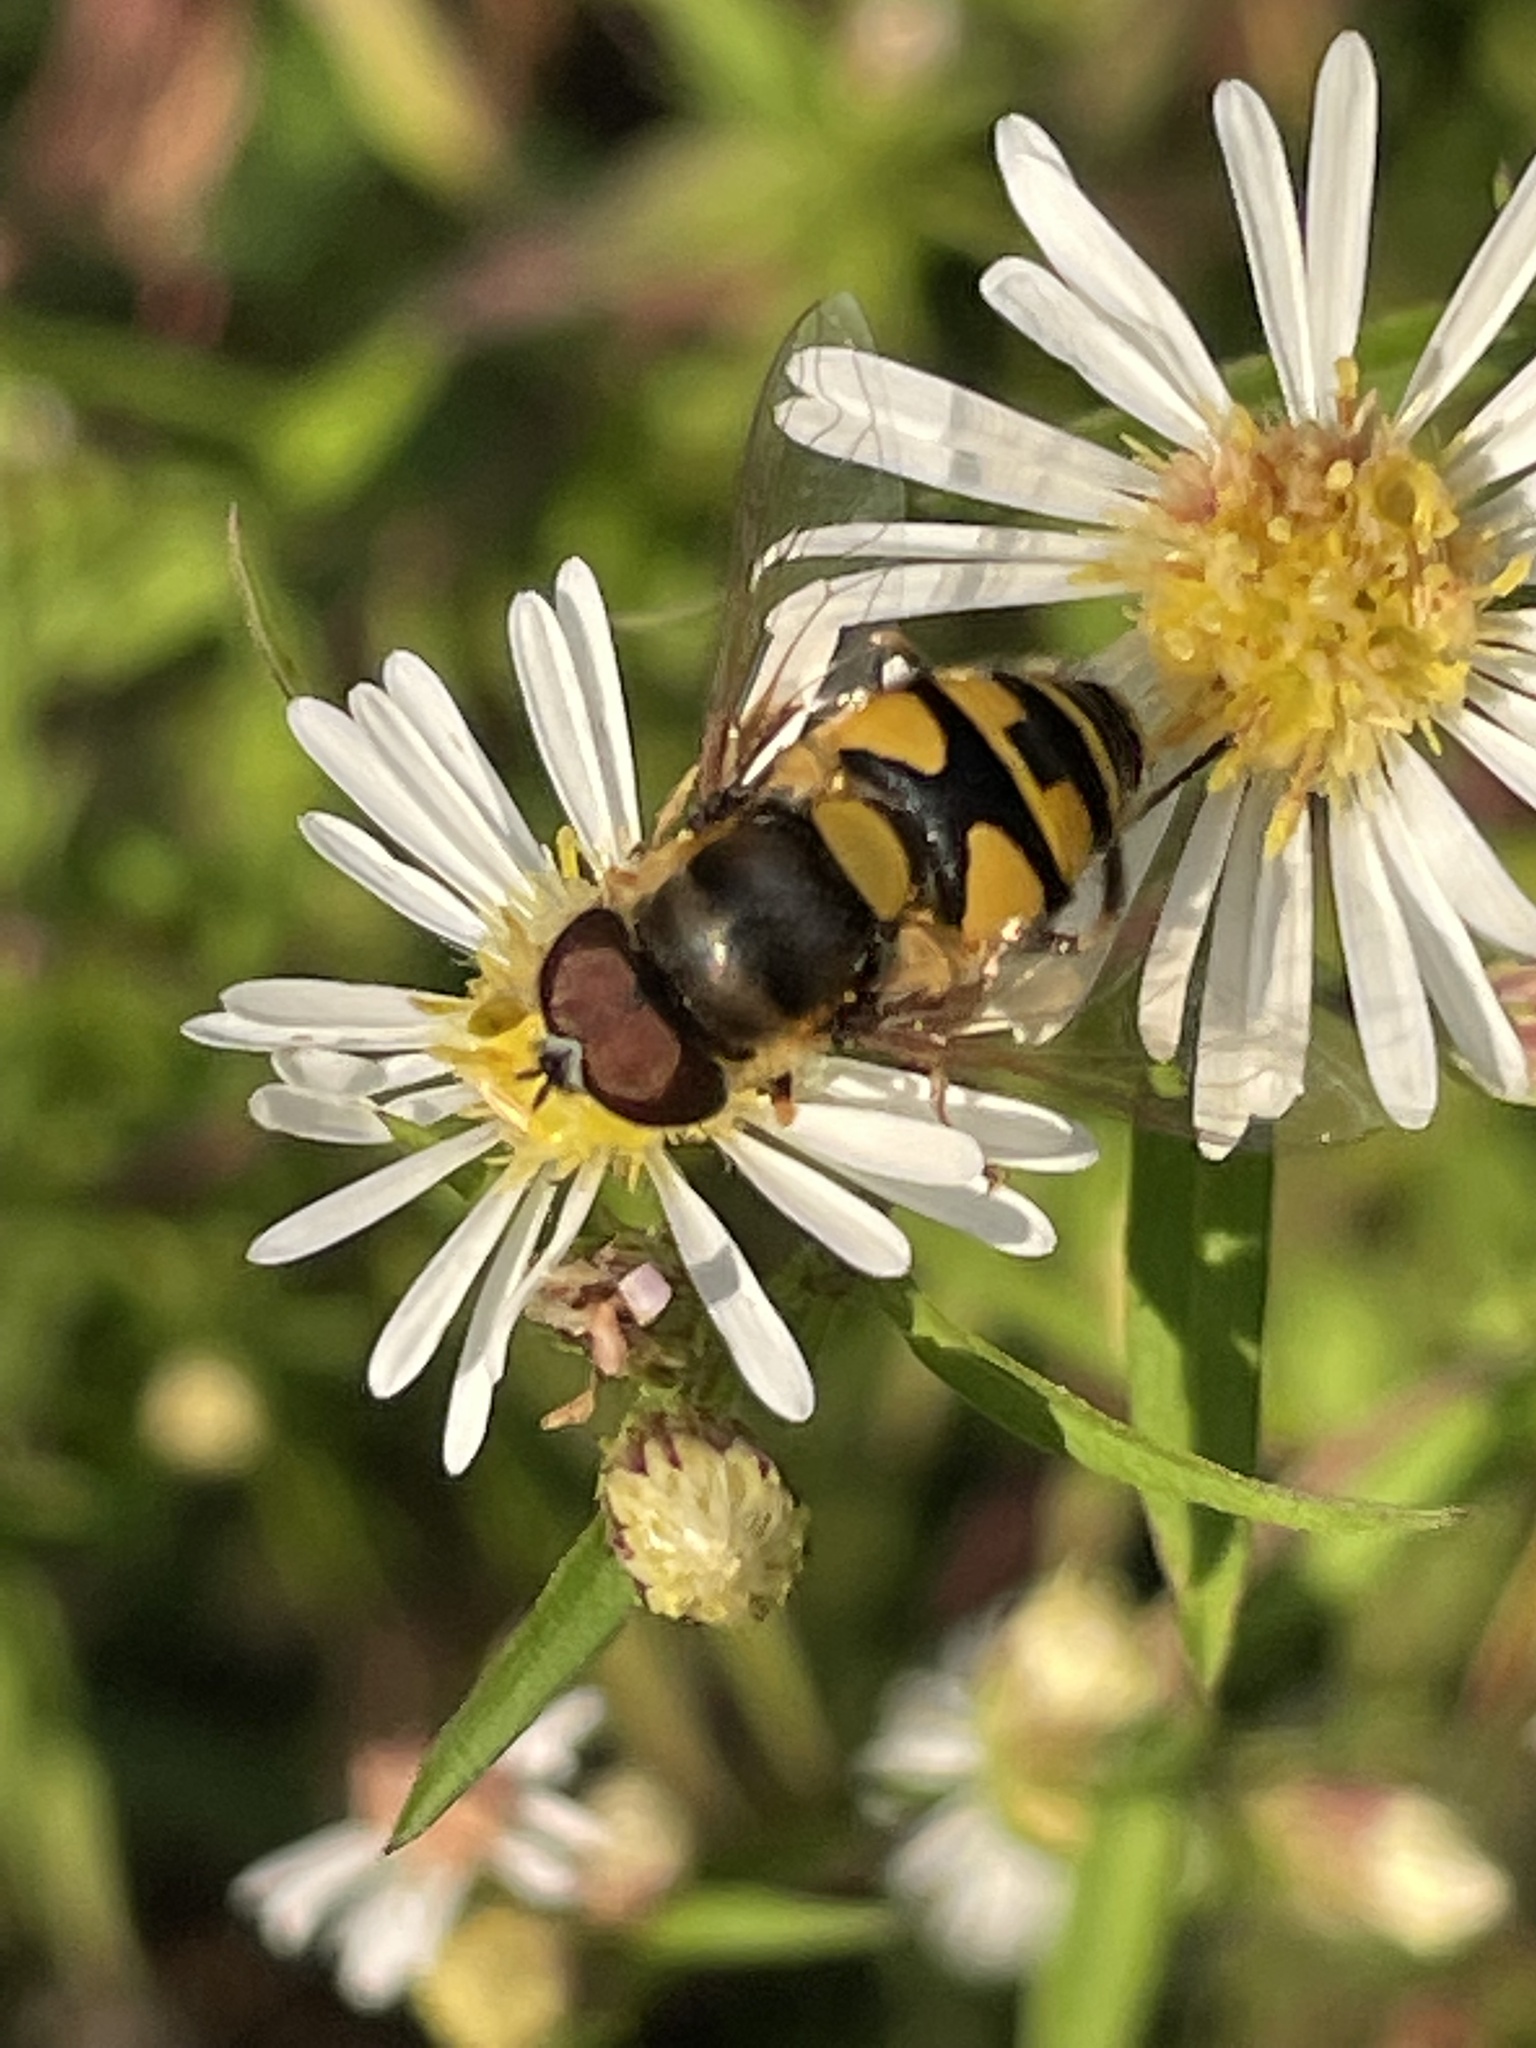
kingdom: Animalia
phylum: Arthropoda
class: Insecta
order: Diptera
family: Syrphidae
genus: Eristalis
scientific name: Eristalis transversa
